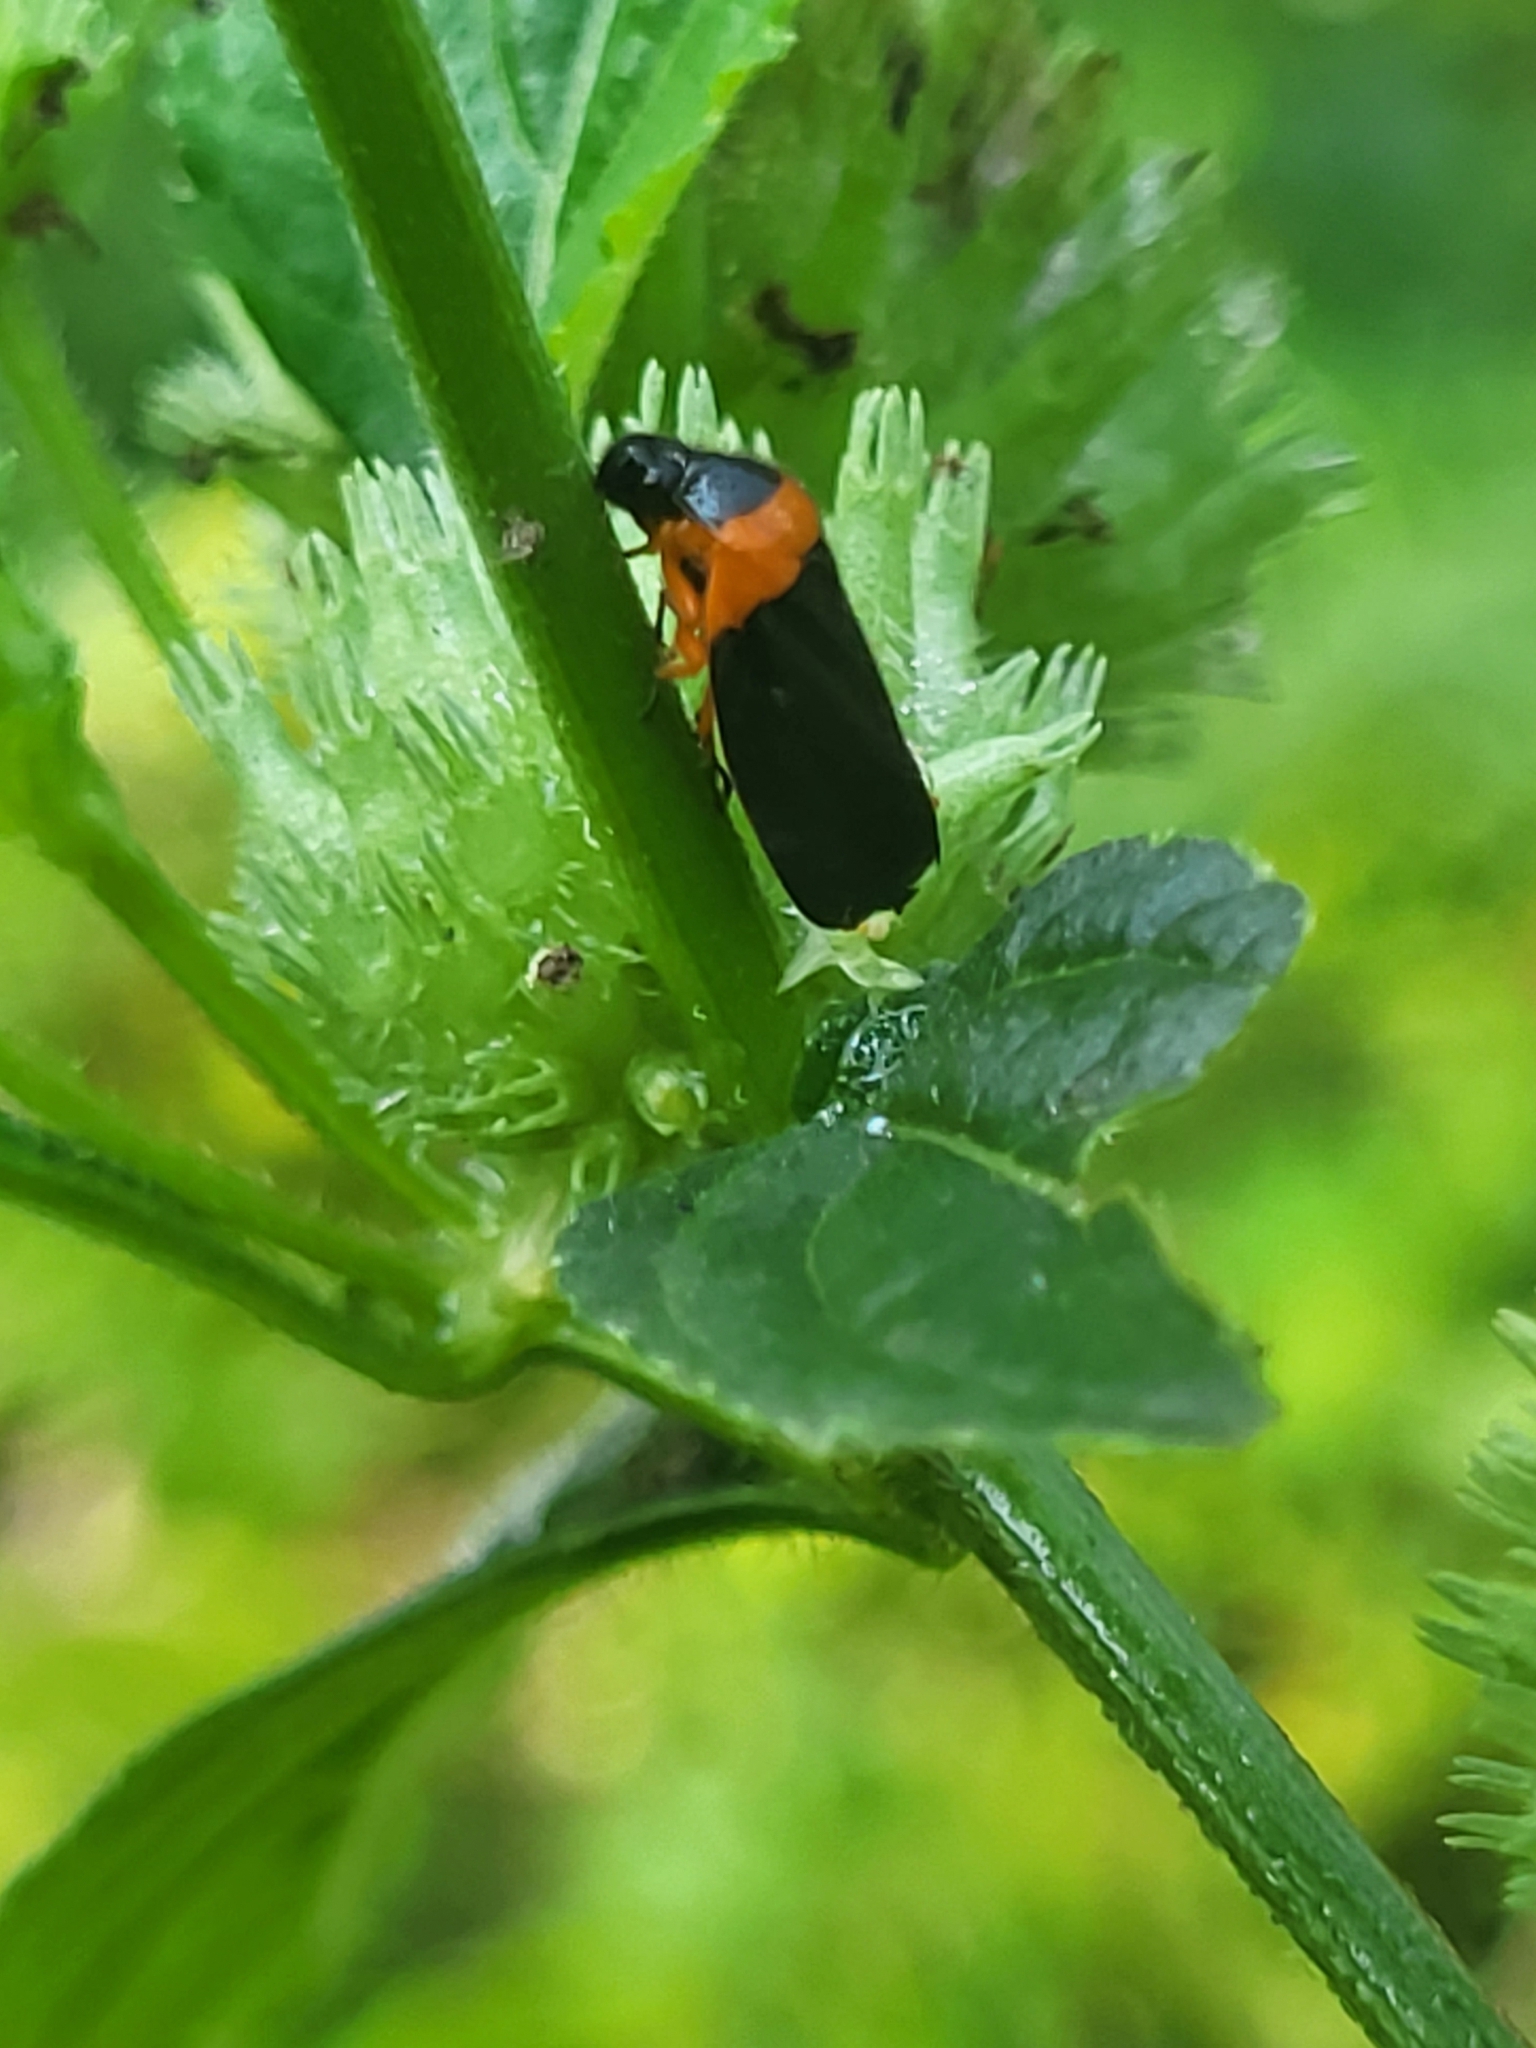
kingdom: Animalia
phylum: Arthropoda
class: Insecta
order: Hemiptera
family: Cercopidae
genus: Phymatostetha
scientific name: Phymatostetha deschampsi
